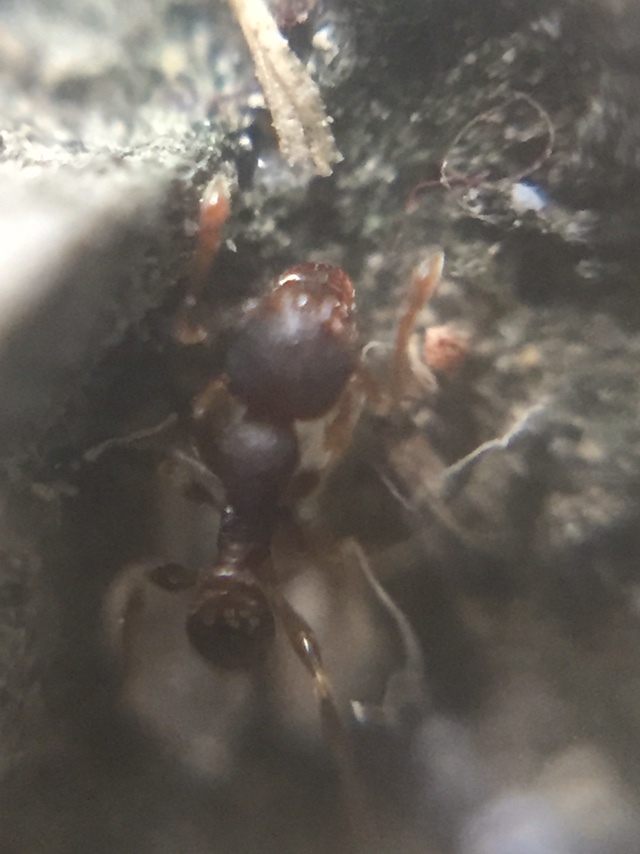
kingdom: Animalia
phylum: Arthropoda
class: Insecta
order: Hymenoptera
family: Formicidae
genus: Pheidole
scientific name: Pheidole parva
